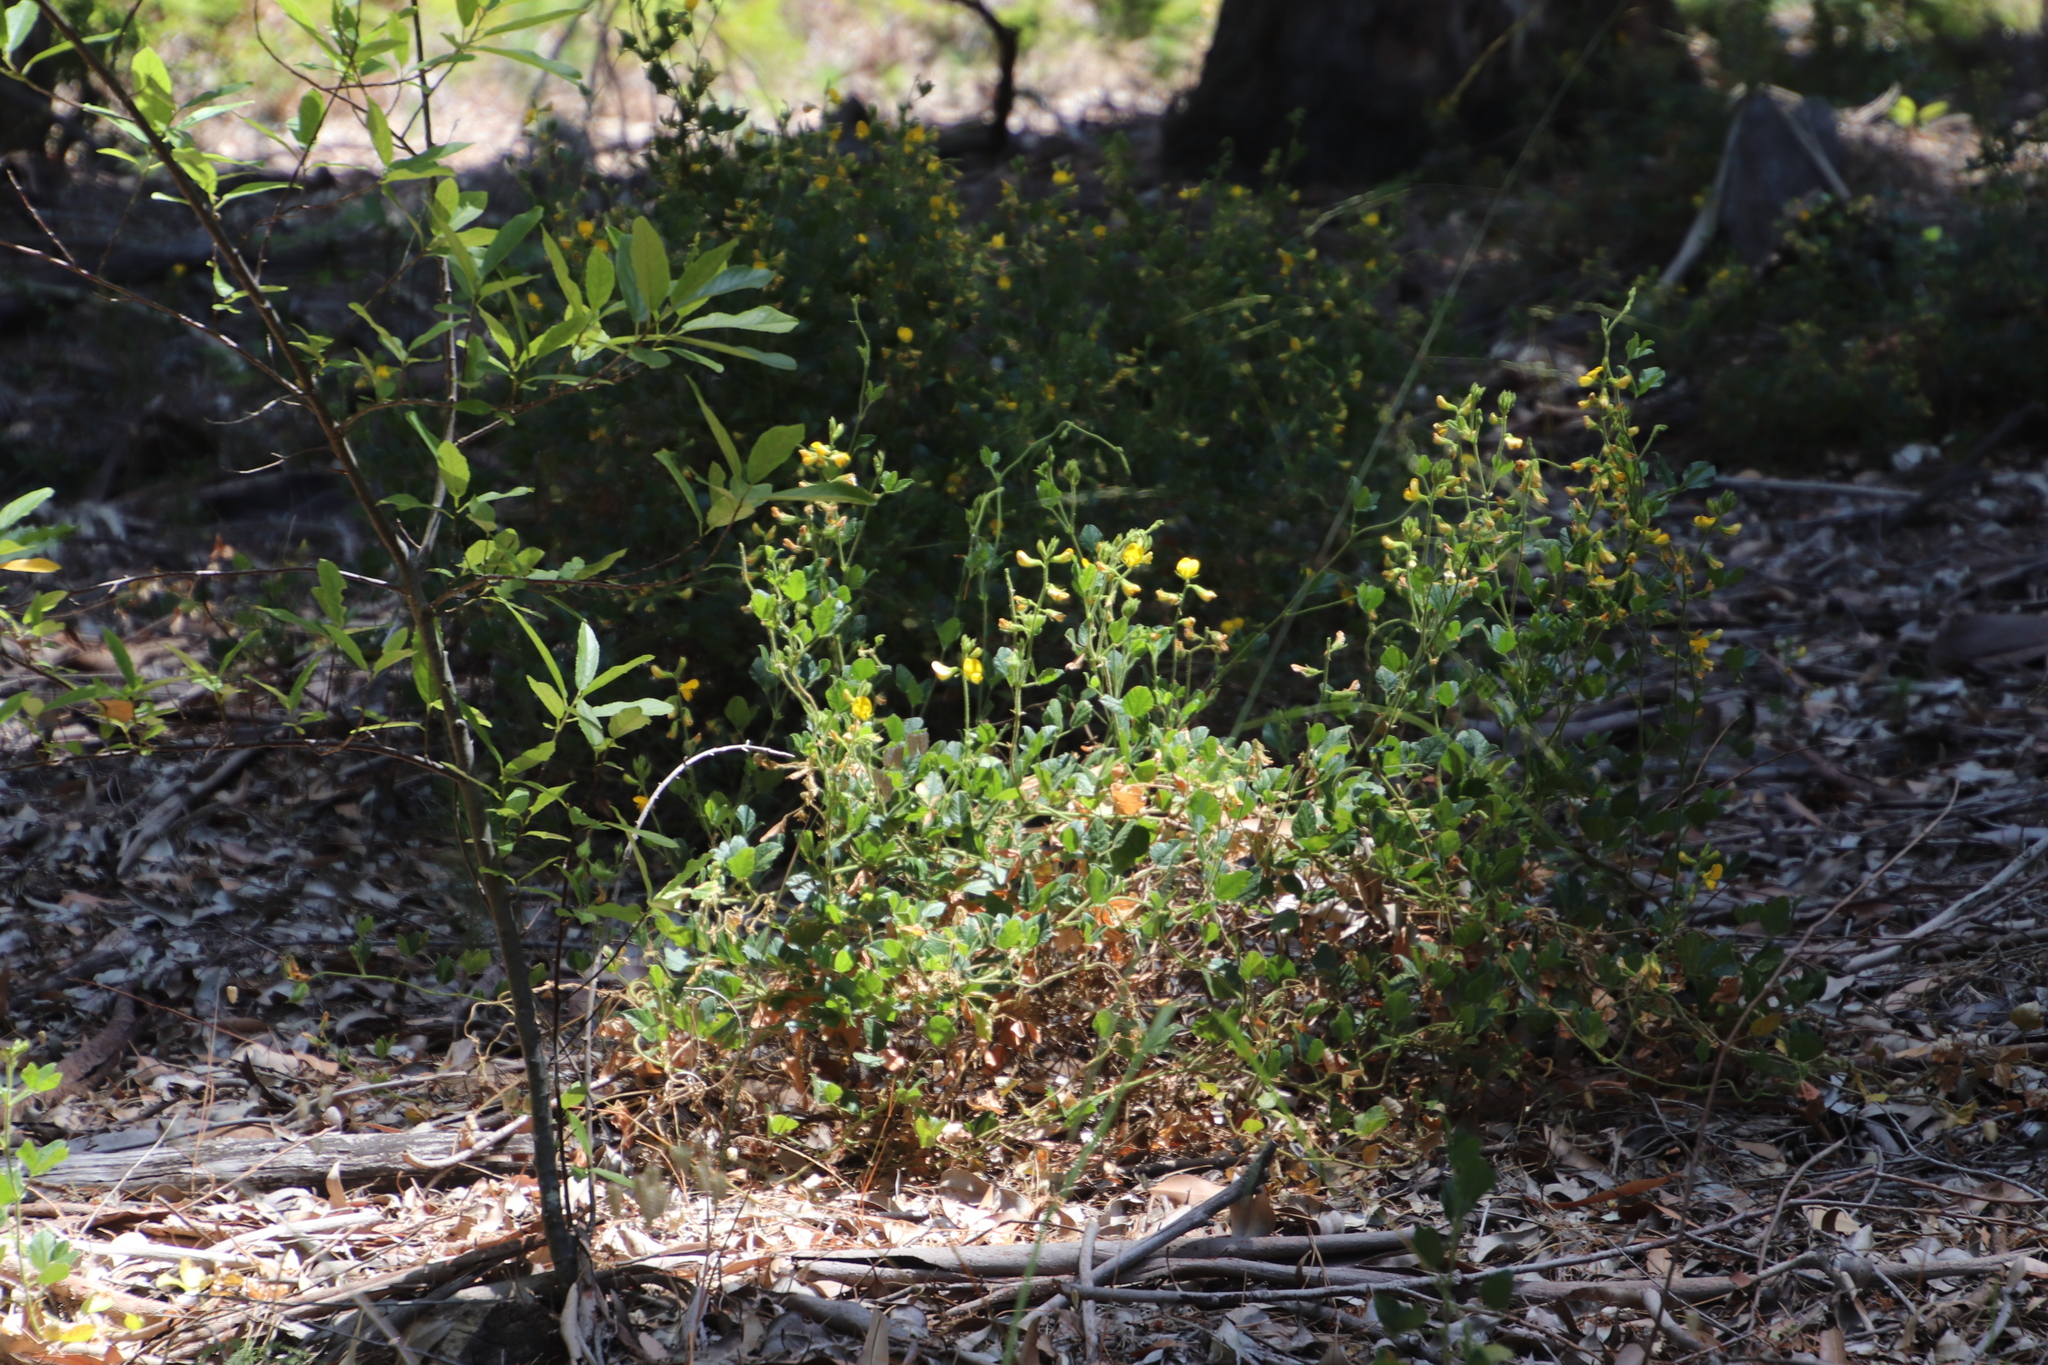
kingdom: Plantae
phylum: Tracheophyta
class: Magnoliopsida
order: Fabales
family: Fabaceae
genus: Bolusafra
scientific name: Bolusafra bituminosa
